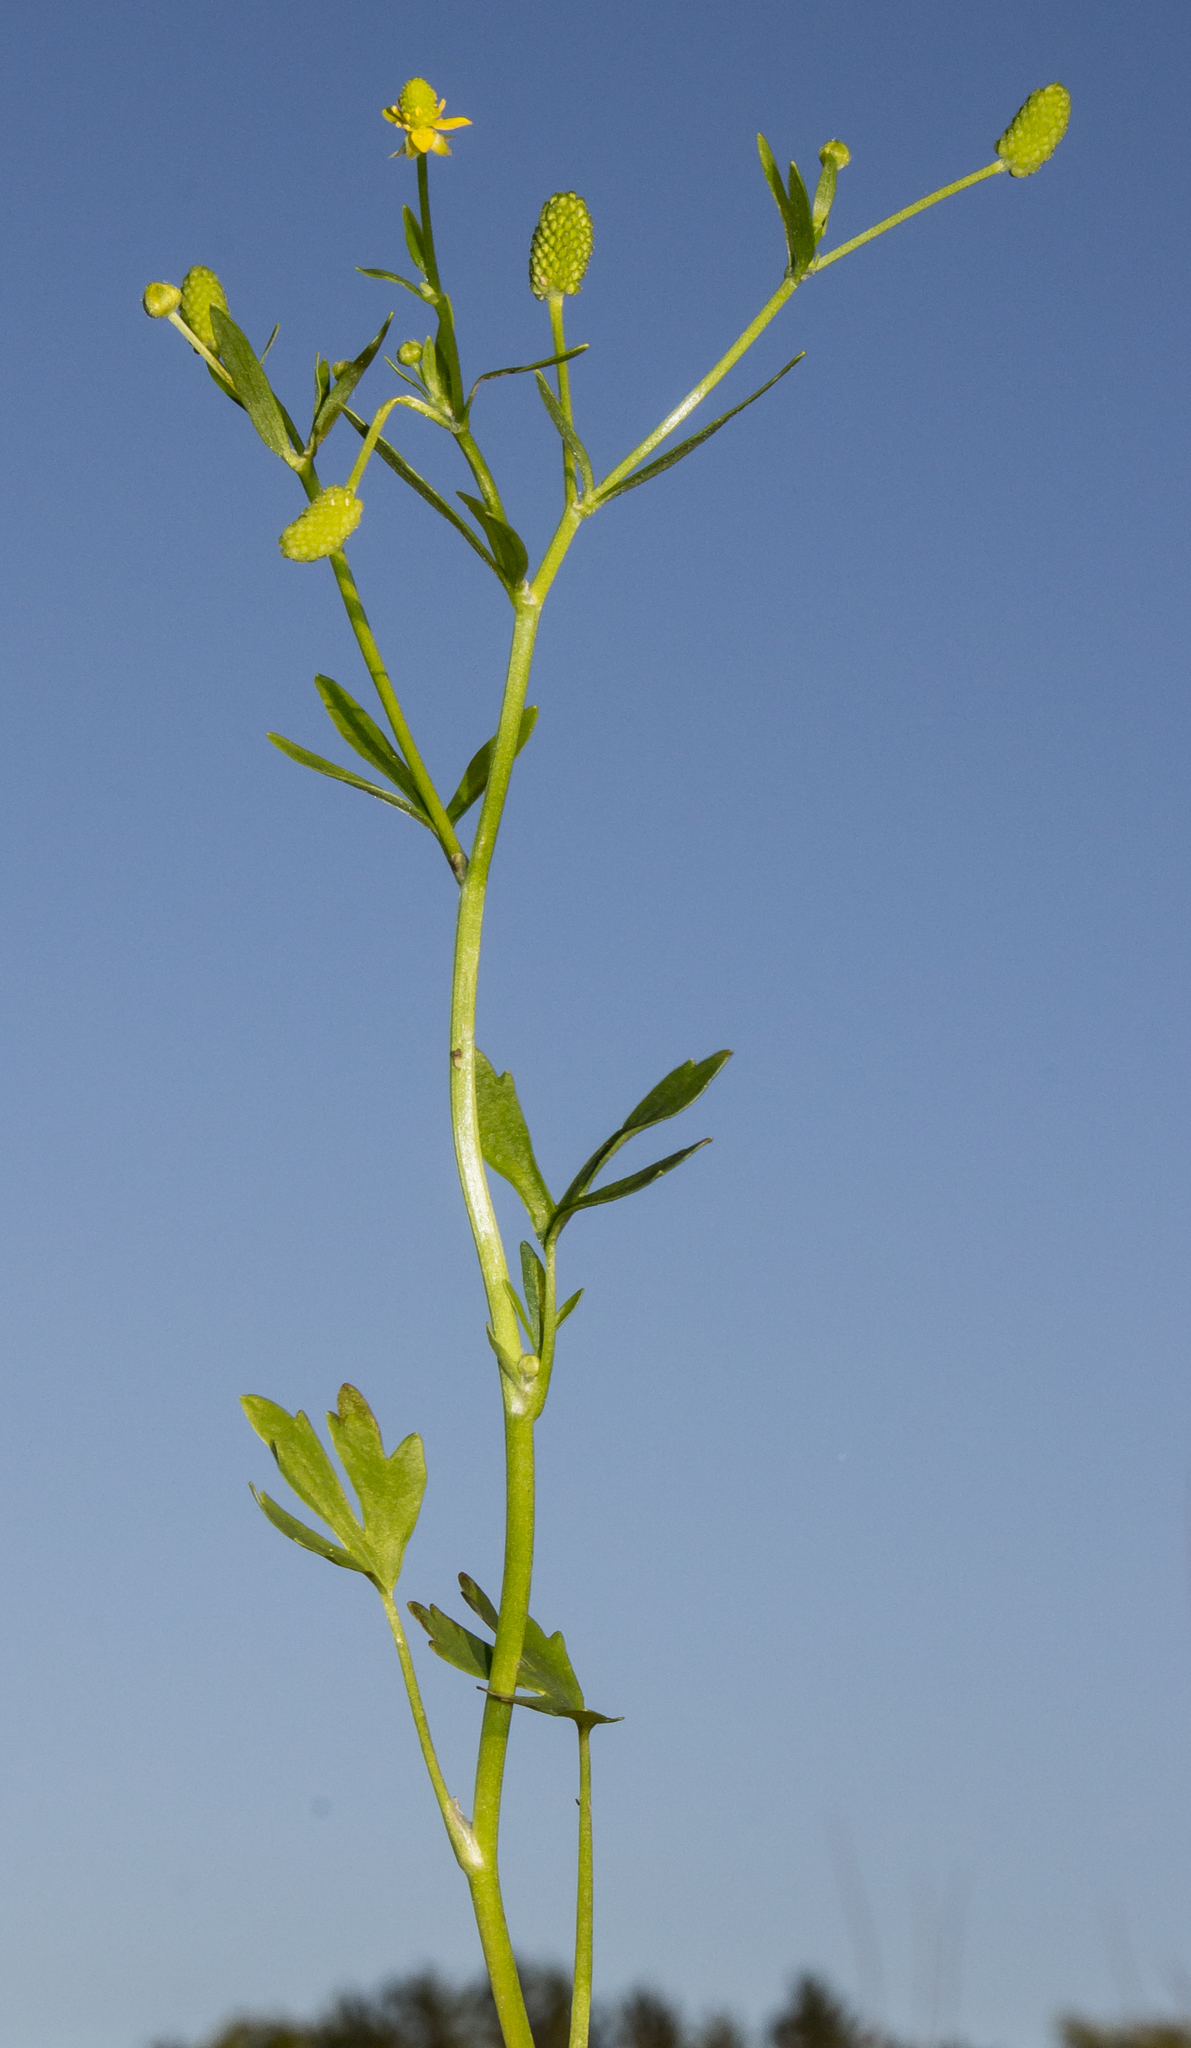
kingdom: Plantae
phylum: Tracheophyta
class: Magnoliopsida
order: Ranunculales
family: Ranunculaceae
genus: Ranunculus
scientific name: Ranunculus sceleratus
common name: Celery-leaved buttercup
